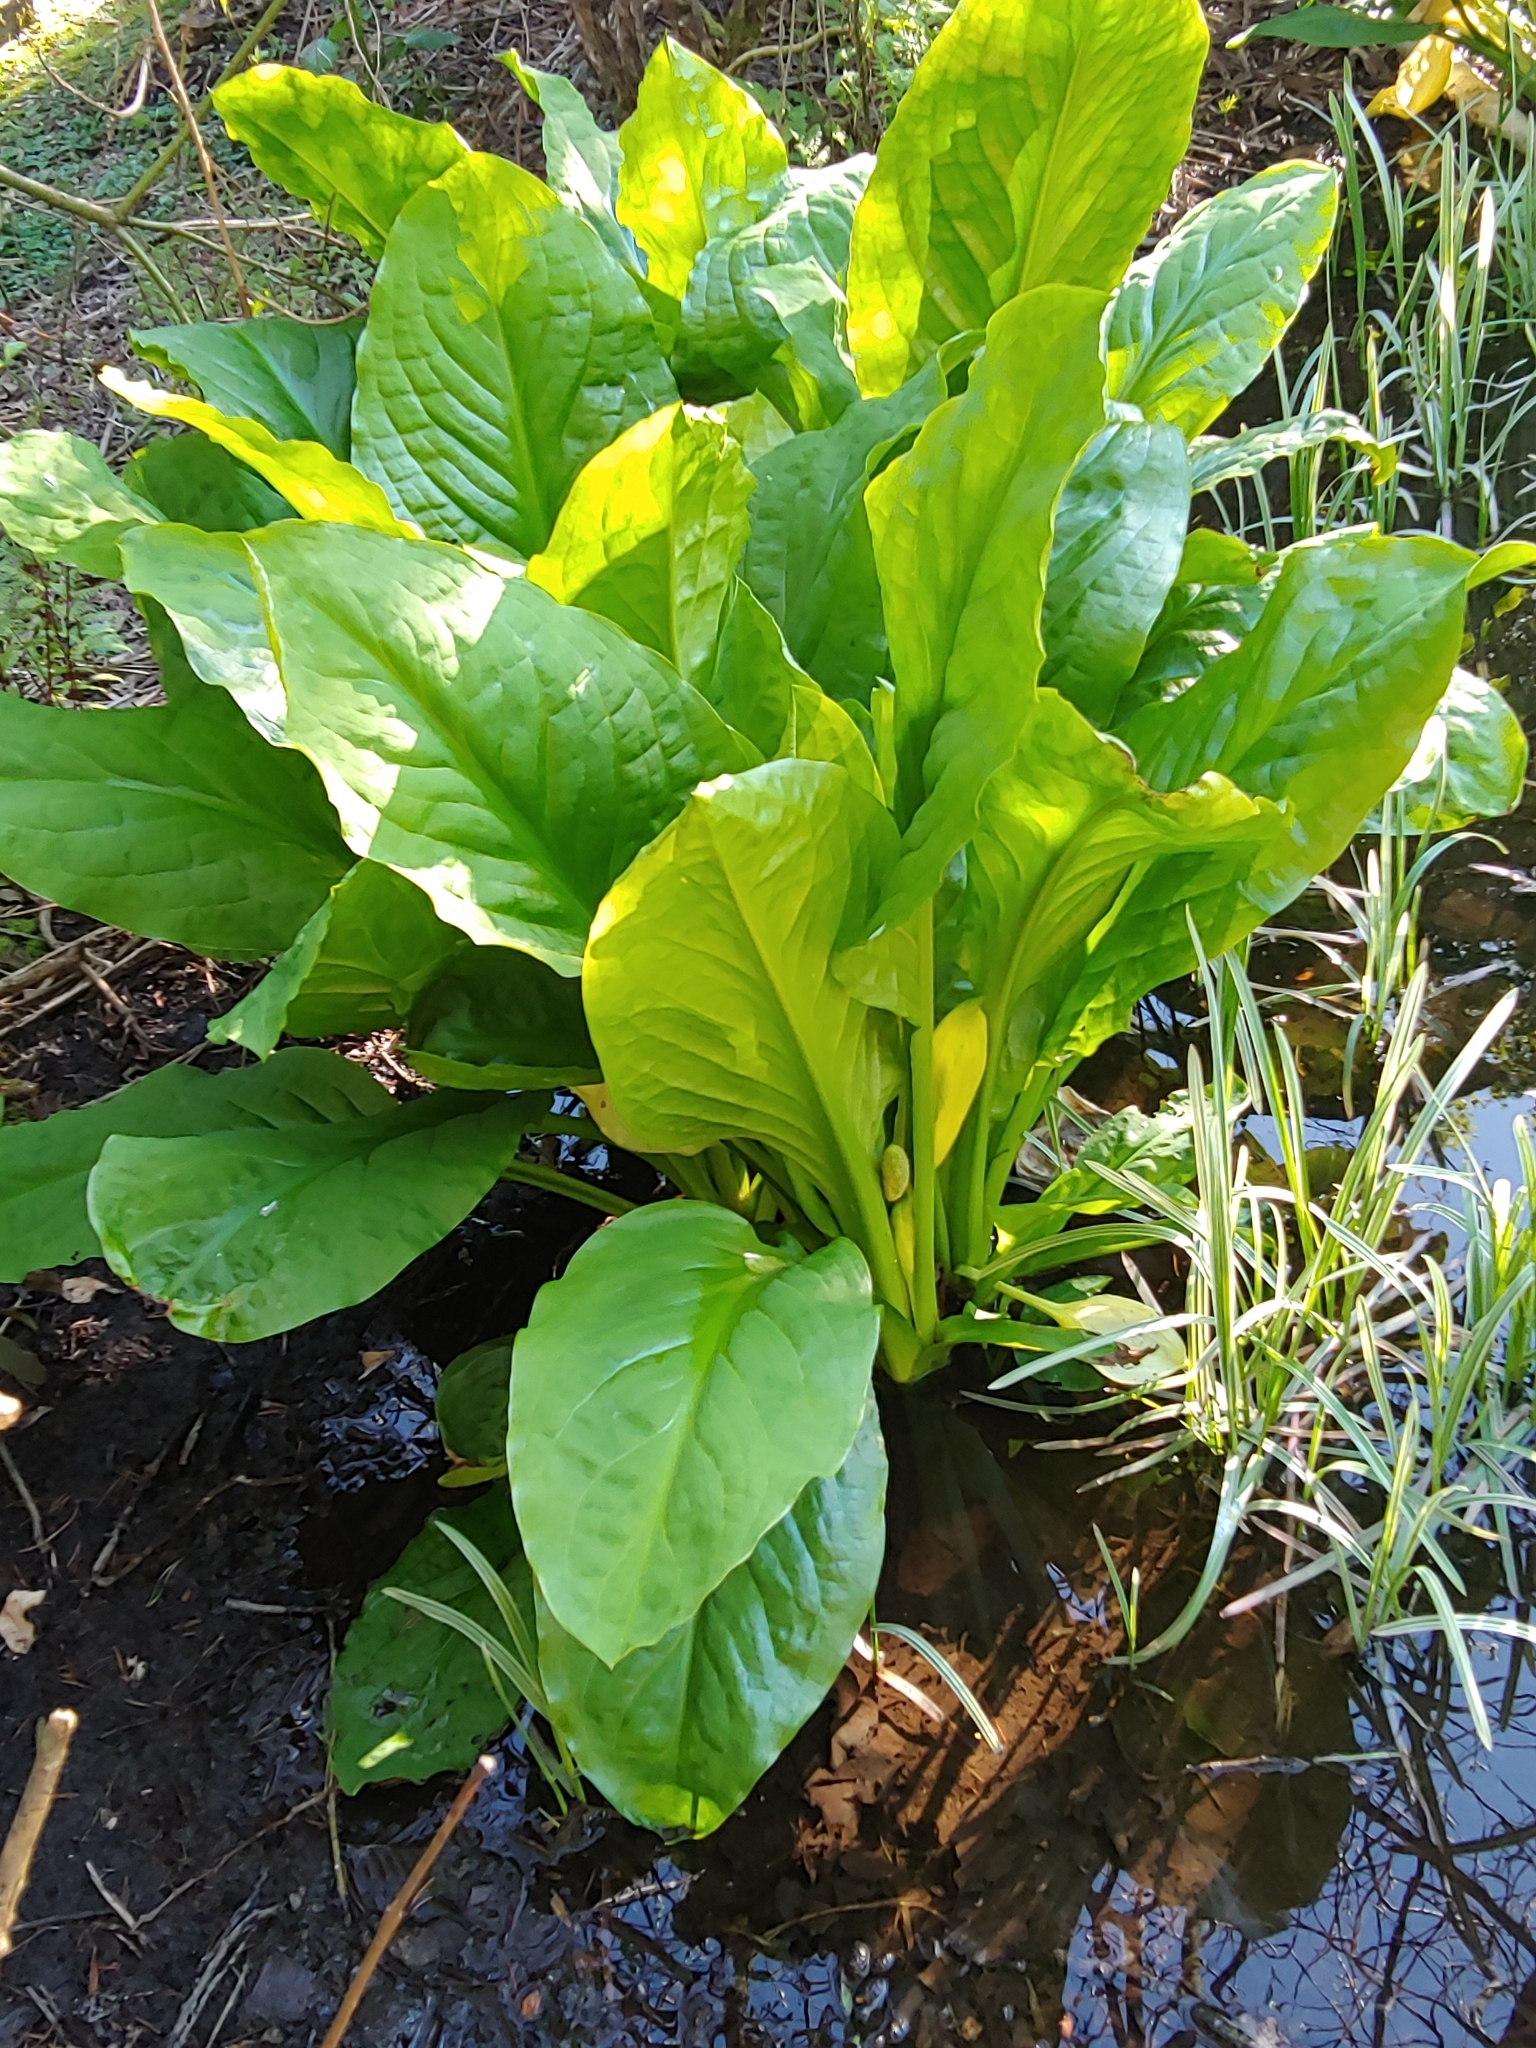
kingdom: Plantae
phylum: Tracheophyta
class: Liliopsida
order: Alismatales
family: Araceae
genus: Lysichiton
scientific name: Lysichiton americanus
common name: American skunk cabbage
